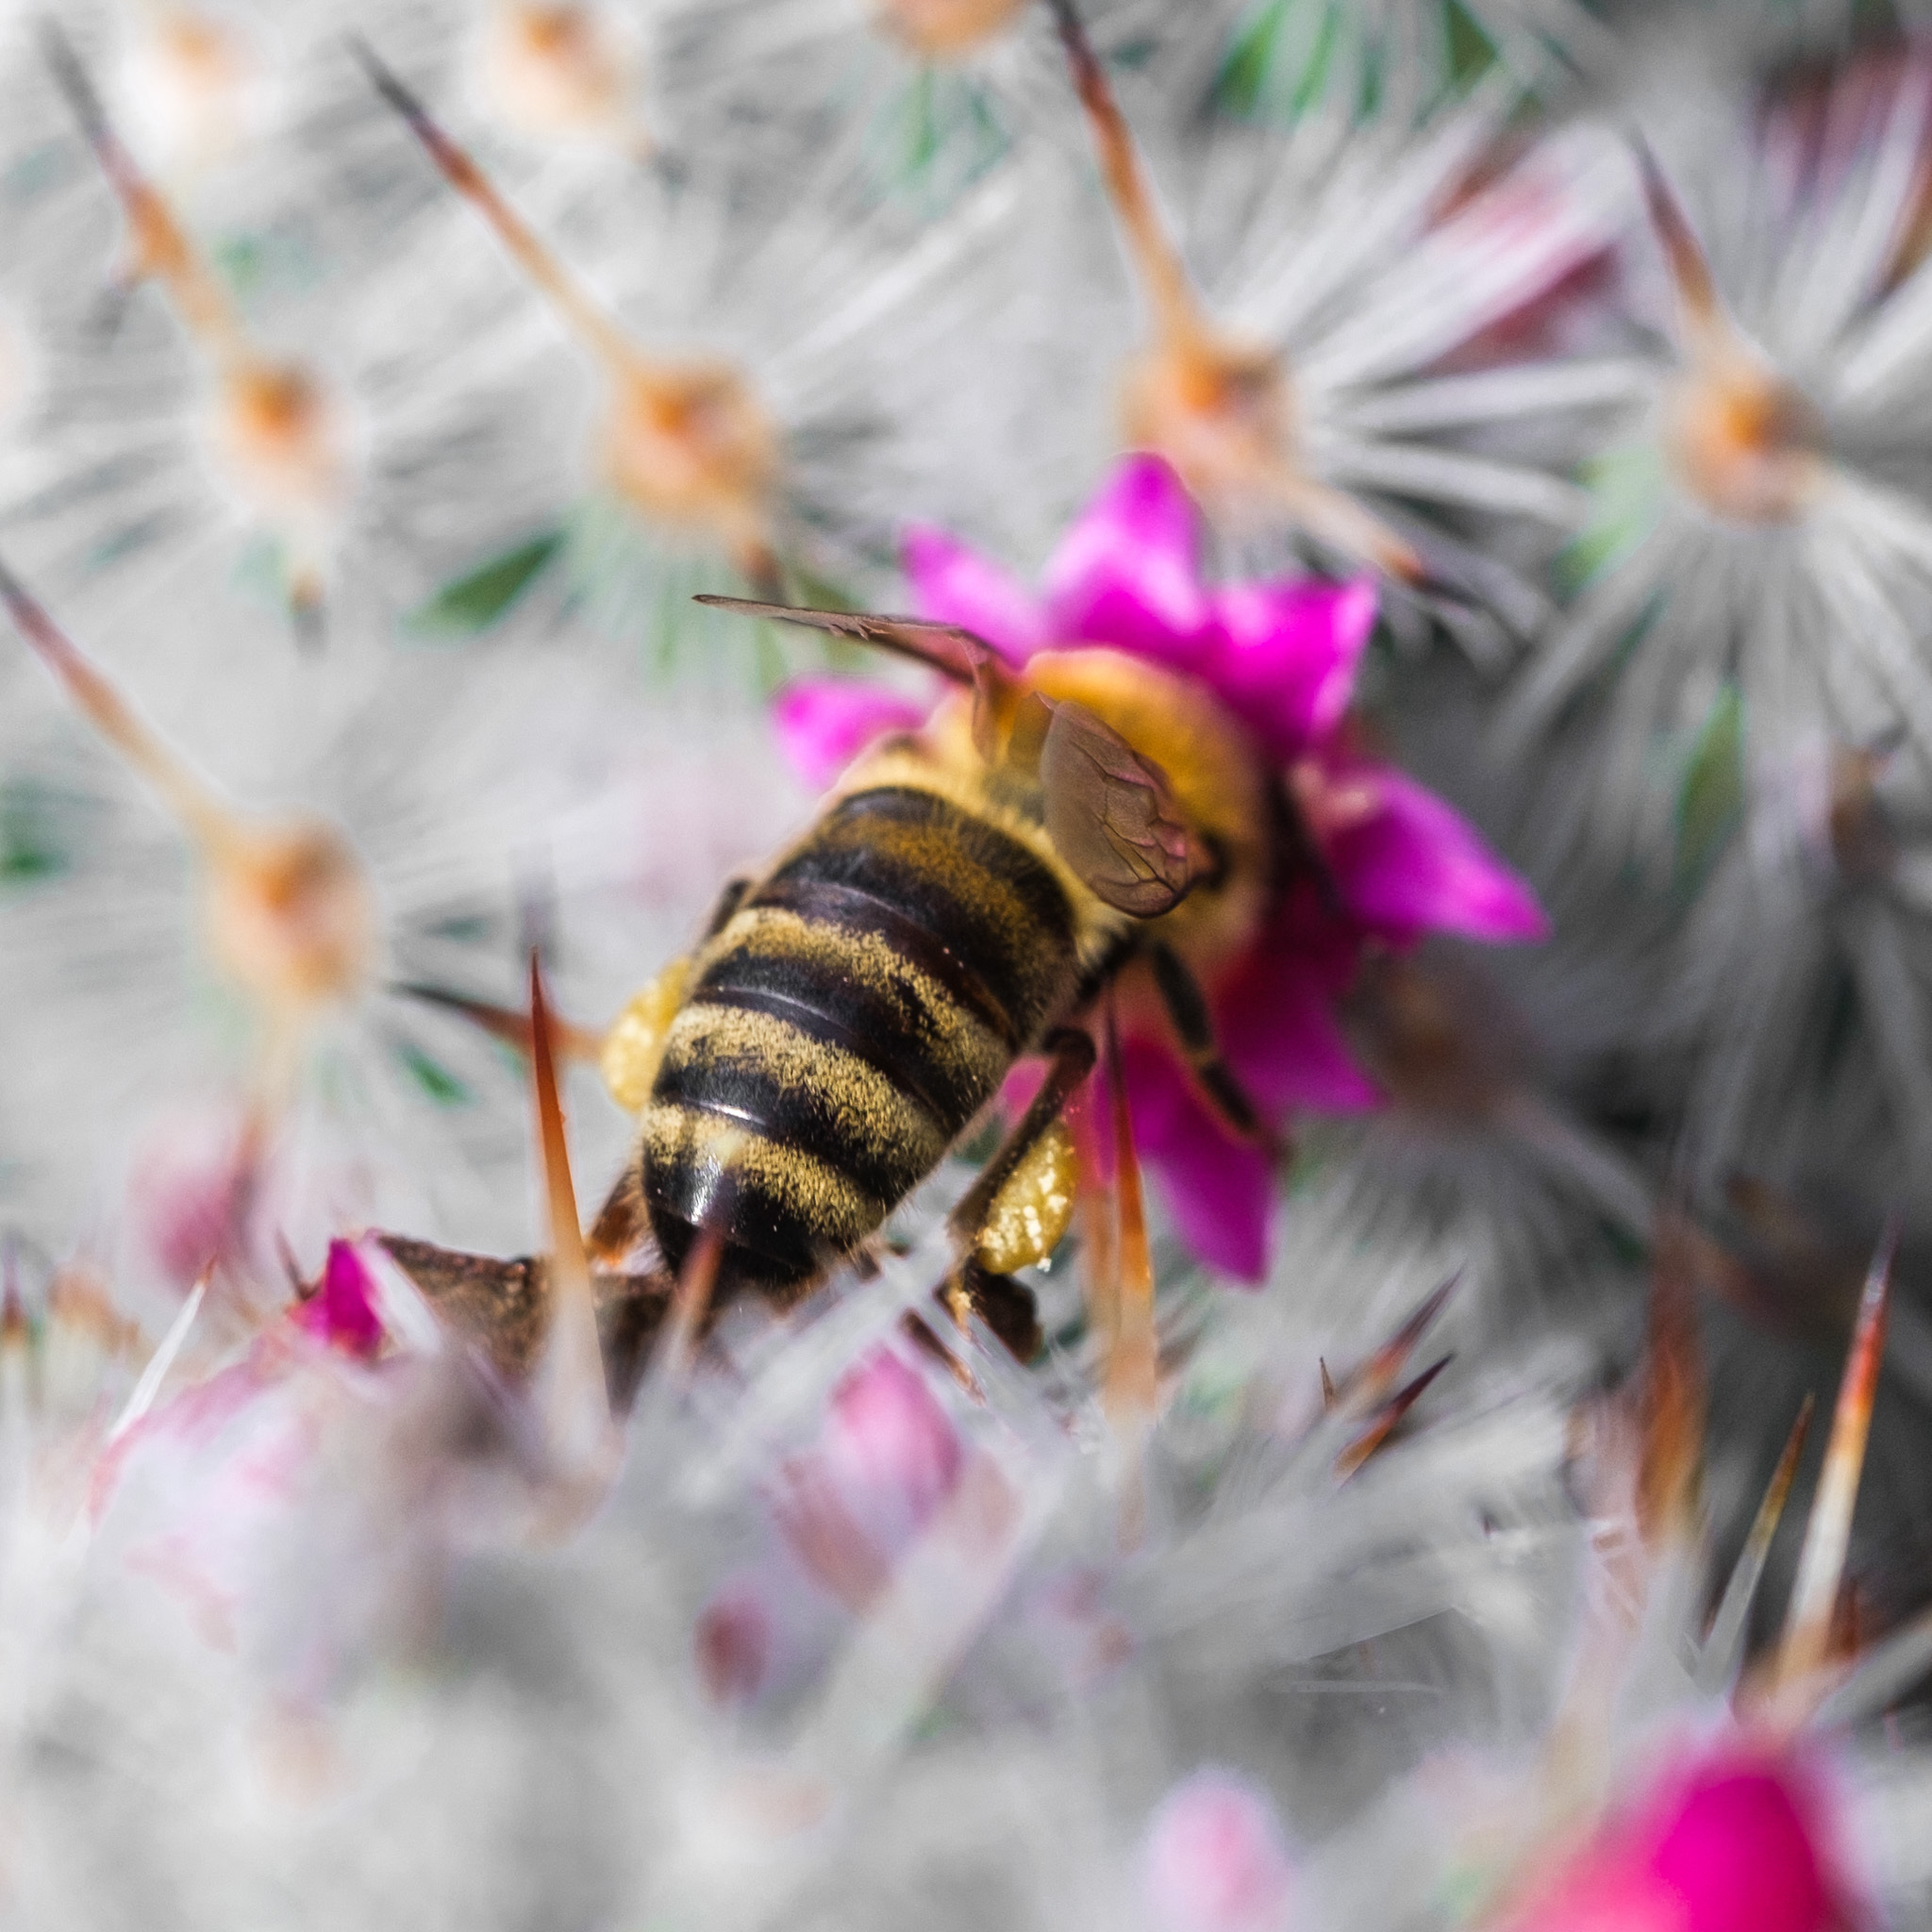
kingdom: Animalia
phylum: Arthropoda
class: Insecta
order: Hymenoptera
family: Apidae
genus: Apis
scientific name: Apis mellifera
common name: Honey bee
